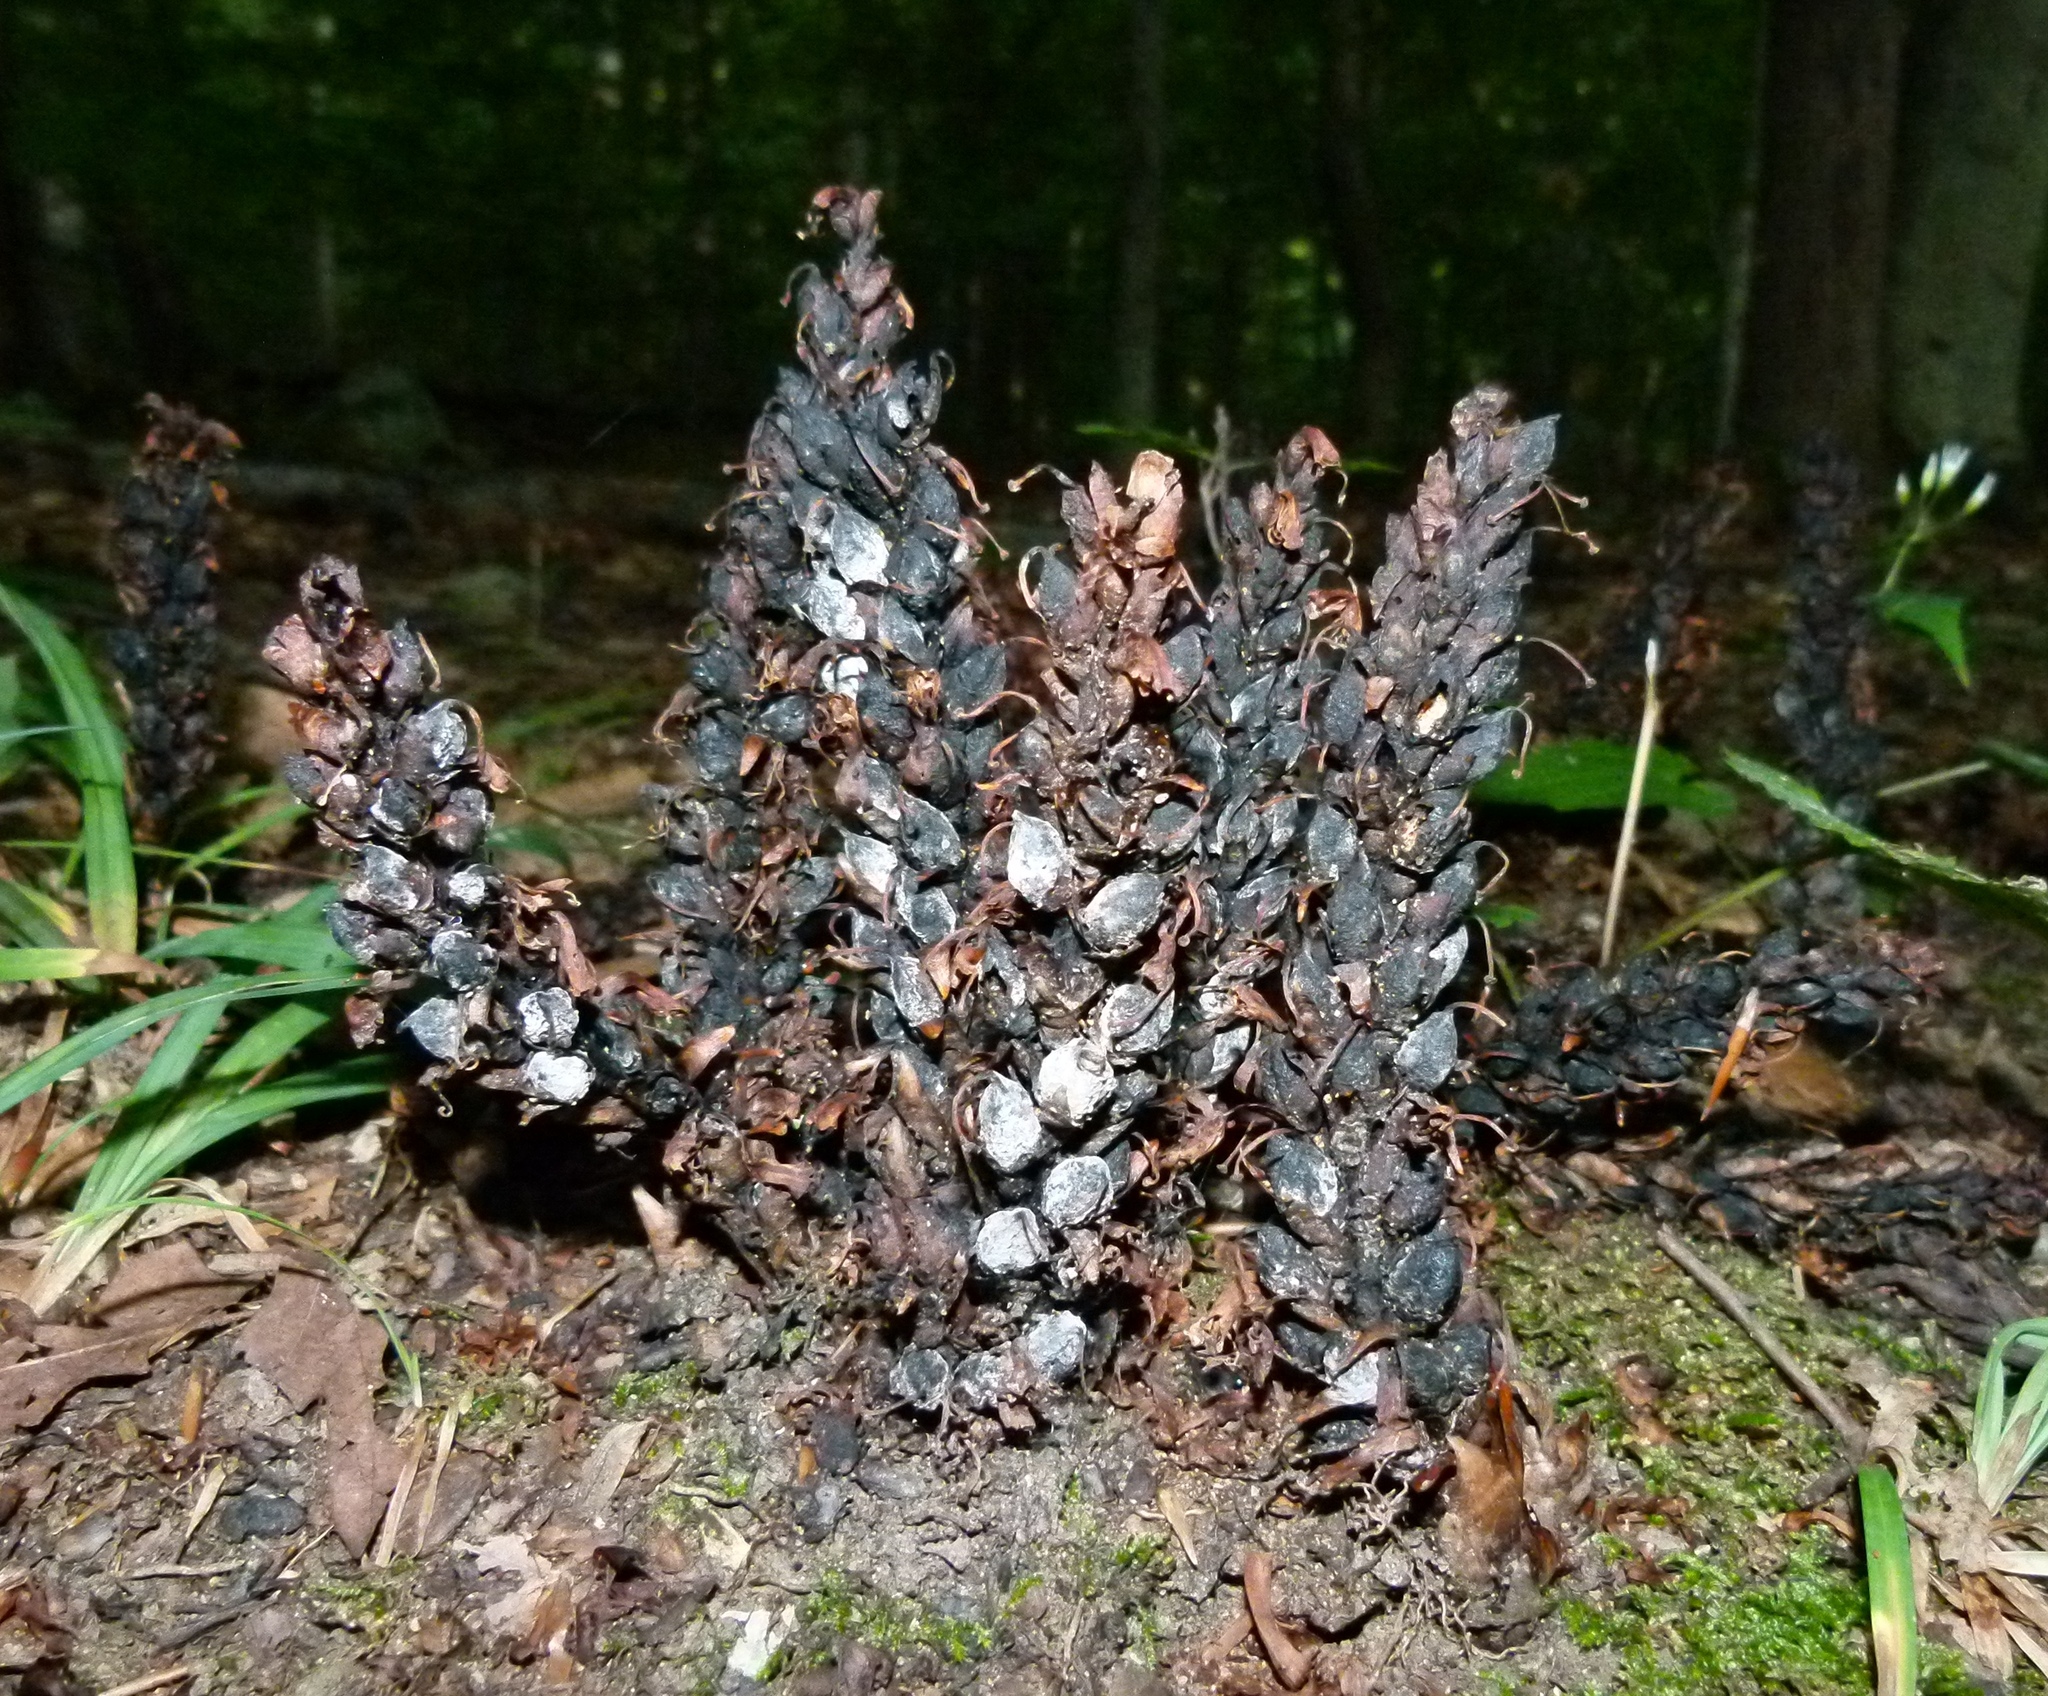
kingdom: Plantae
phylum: Tracheophyta
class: Magnoliopsida
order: Lamiales
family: Orobanchaceae
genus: Conopholis
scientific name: Conopholis americana
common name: American cancer-root
